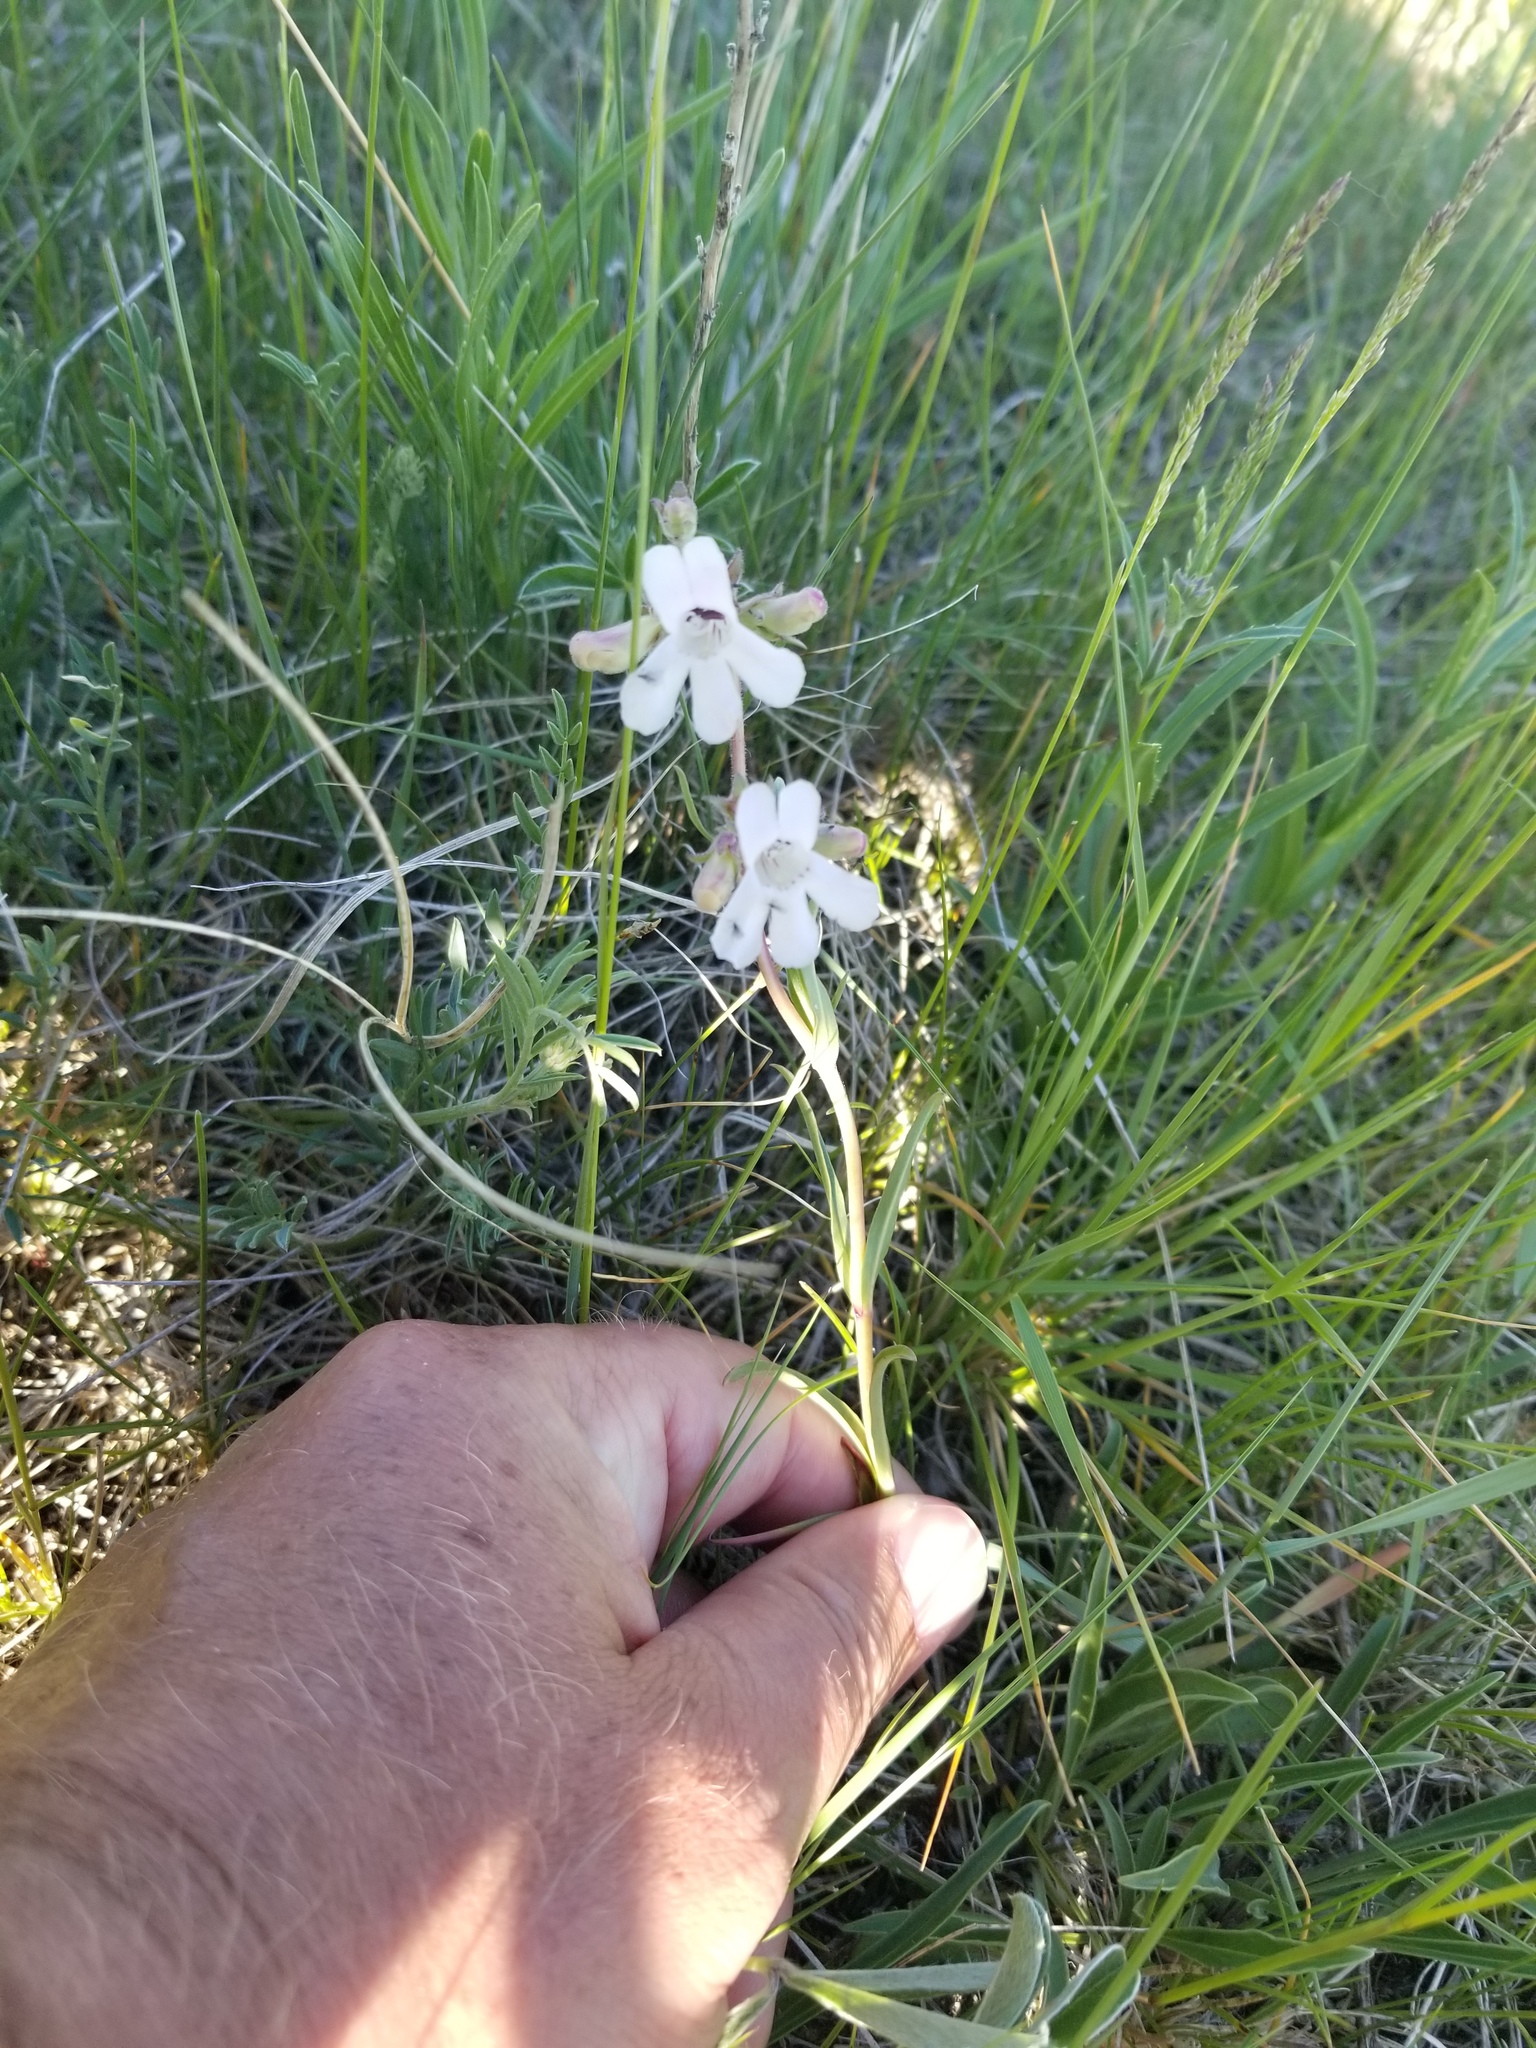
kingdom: Plantae
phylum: Tracheophyta
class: Magnoliopsida
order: Lamiales
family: Plantaginaceae
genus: Penstemon
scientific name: Penstemon albidus
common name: White beardtongue
